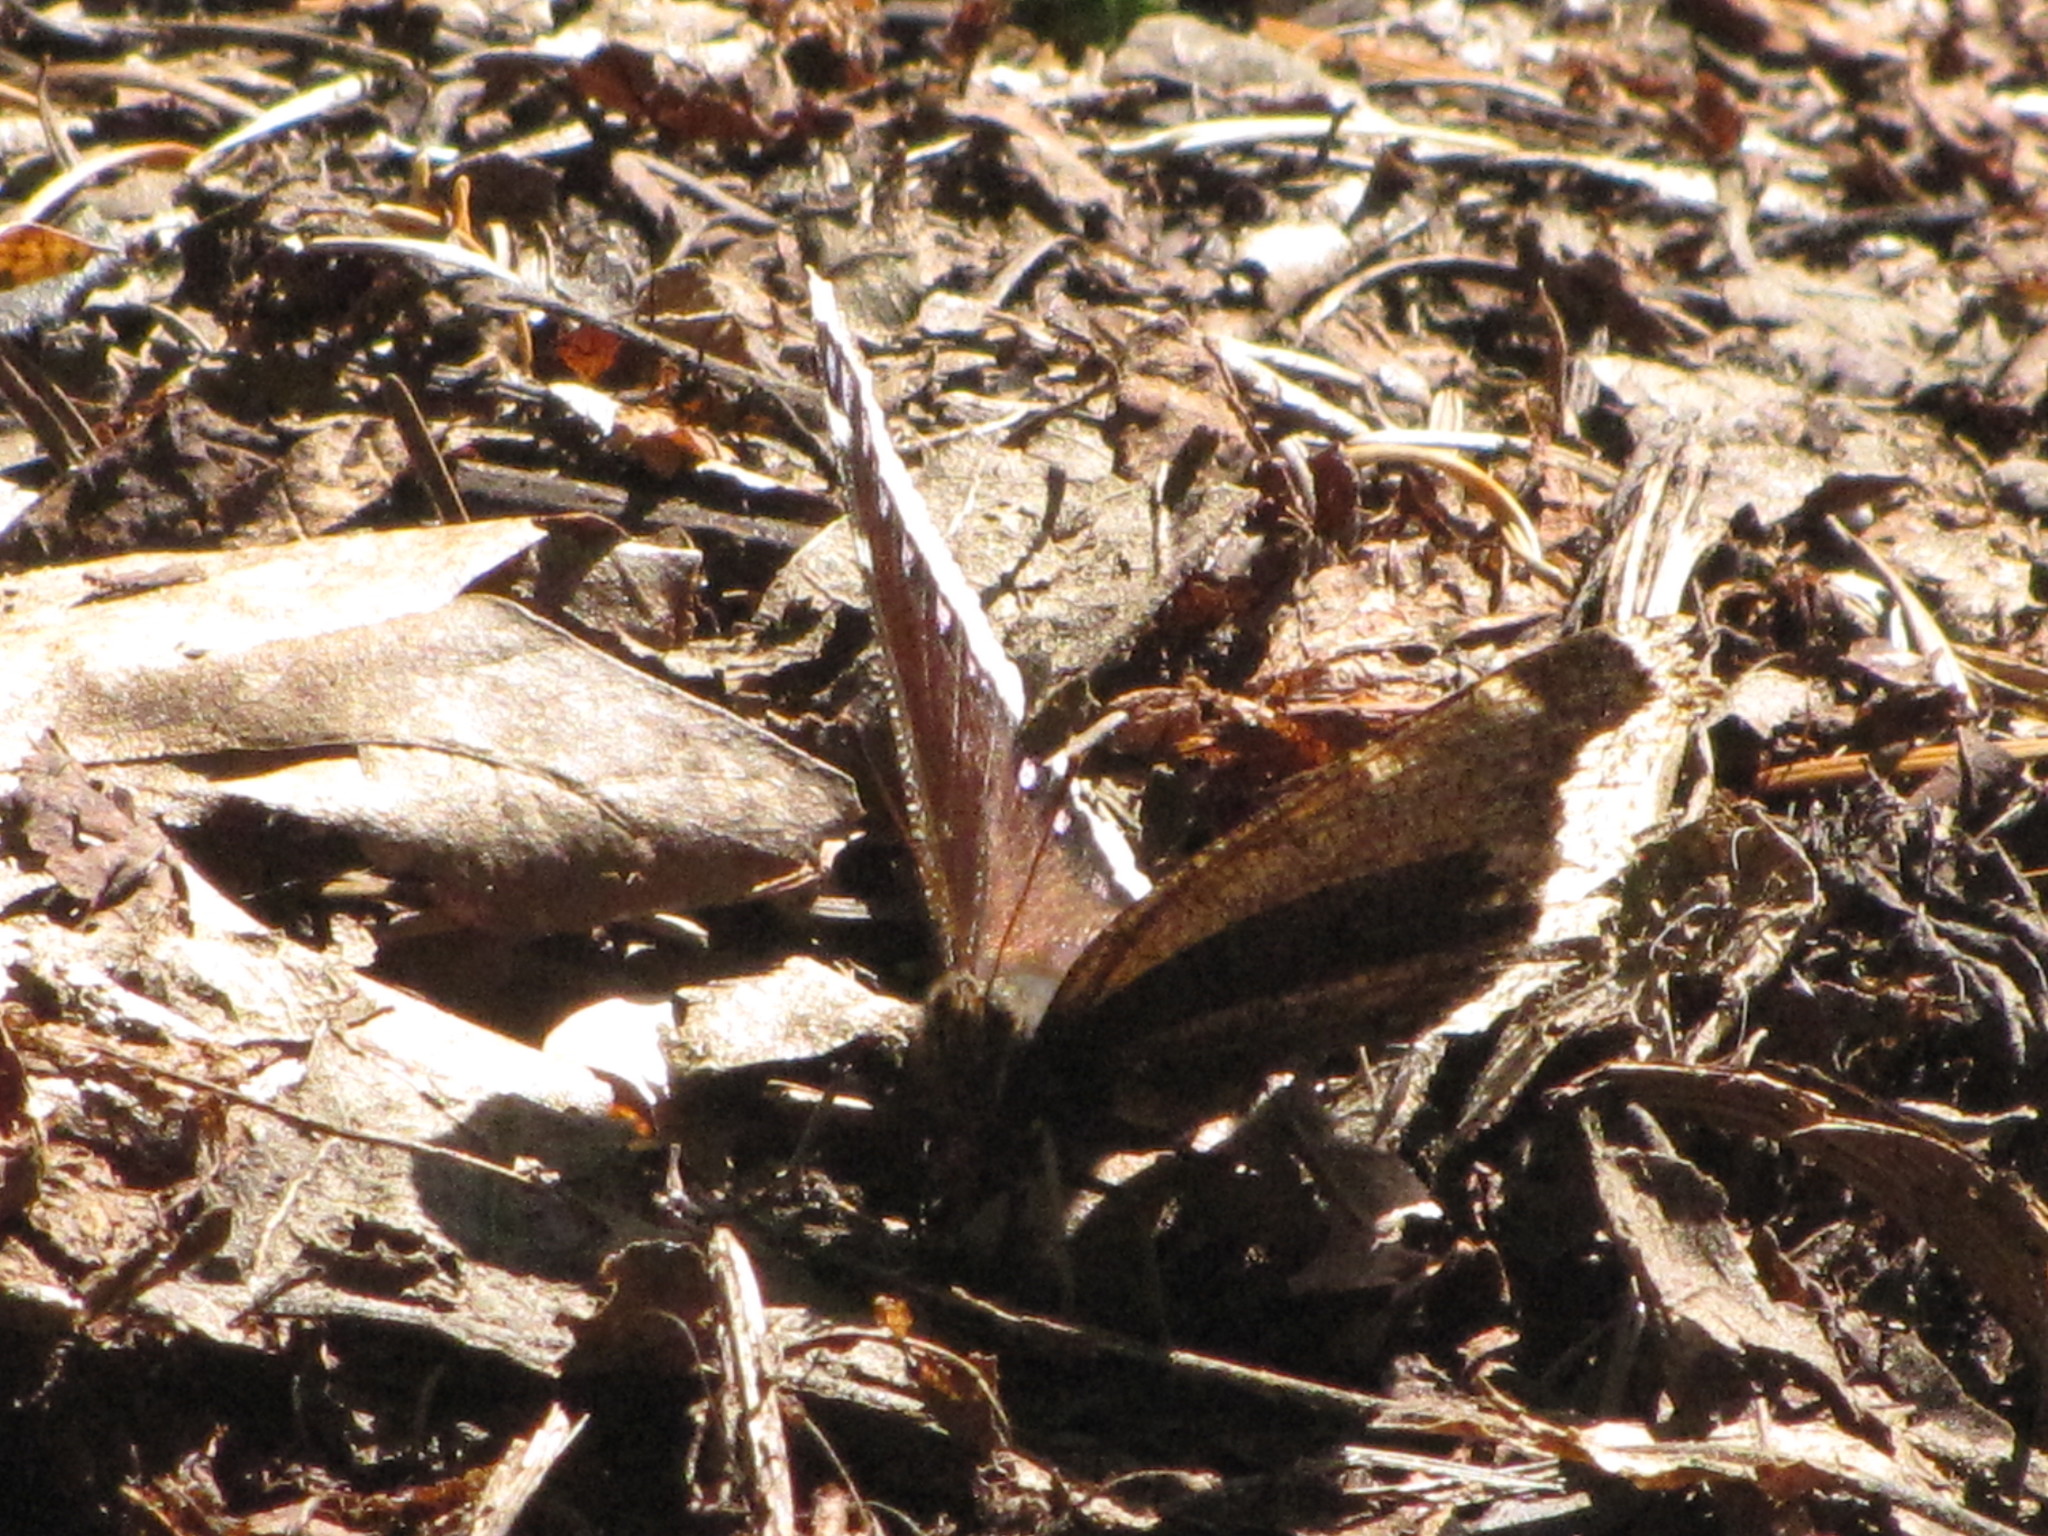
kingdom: Animalia
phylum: Arthropoda
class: Insecta
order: Lepidoptera
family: Nymphalidae
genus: Nymphalis
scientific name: Nymphalis antiopa
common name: Camberwell beauty
